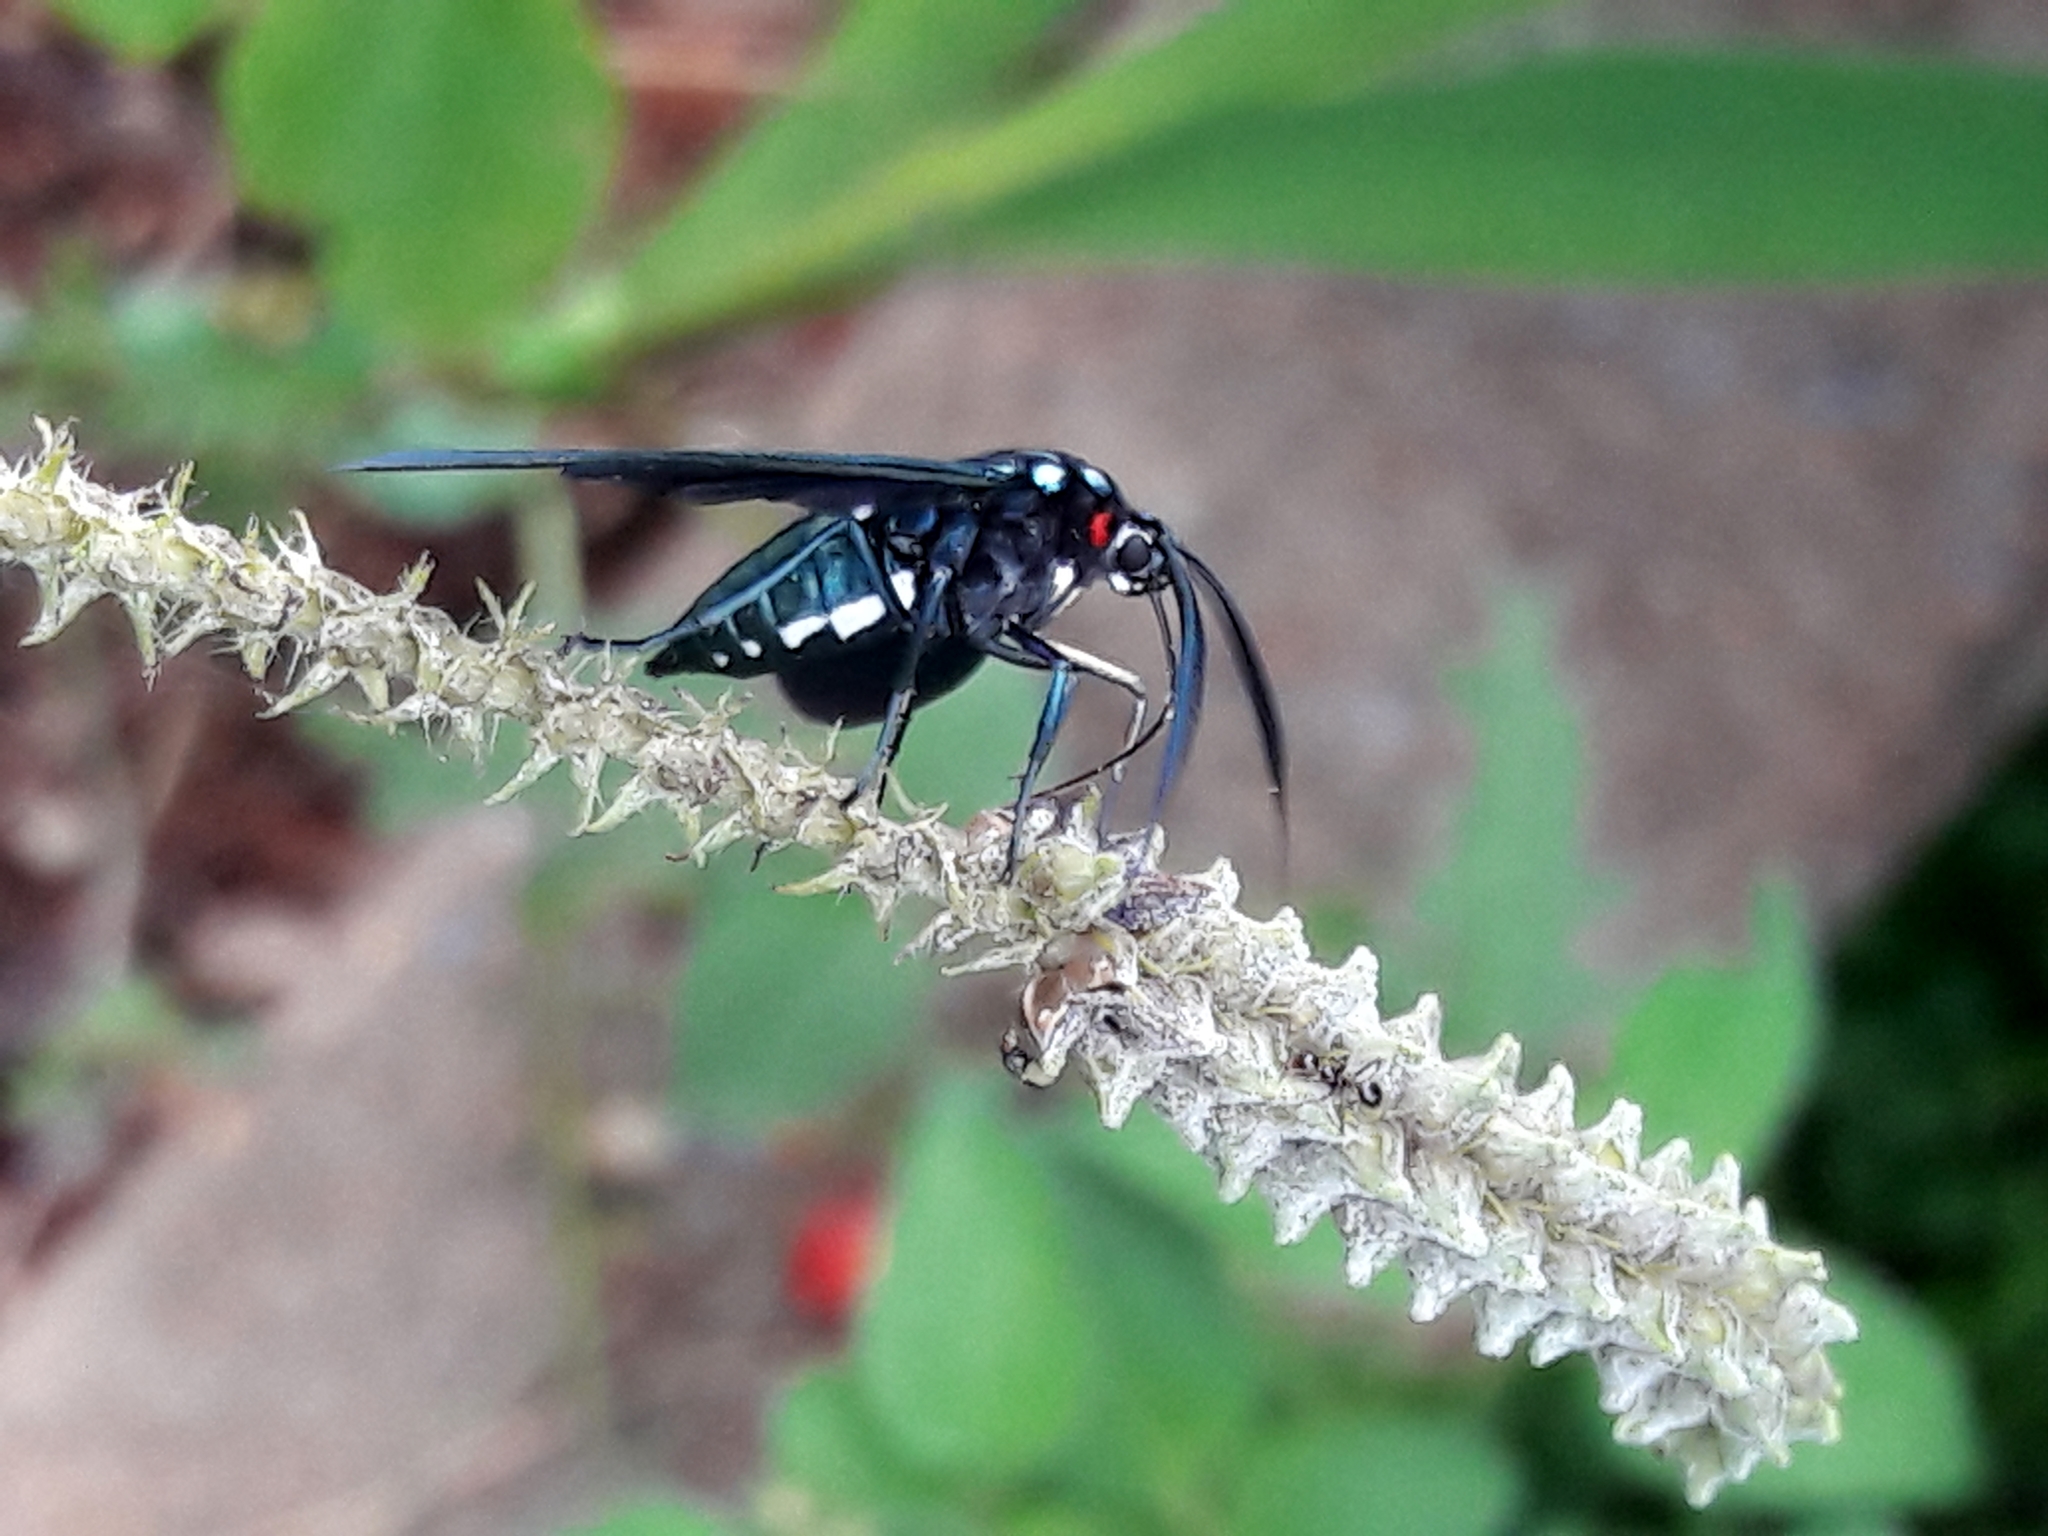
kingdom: Animalia
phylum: Arthropoda
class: Insecta
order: Lepidoptera
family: Erebidae
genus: Antichloris
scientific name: Antichloris eriphia
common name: Banana stowaway
